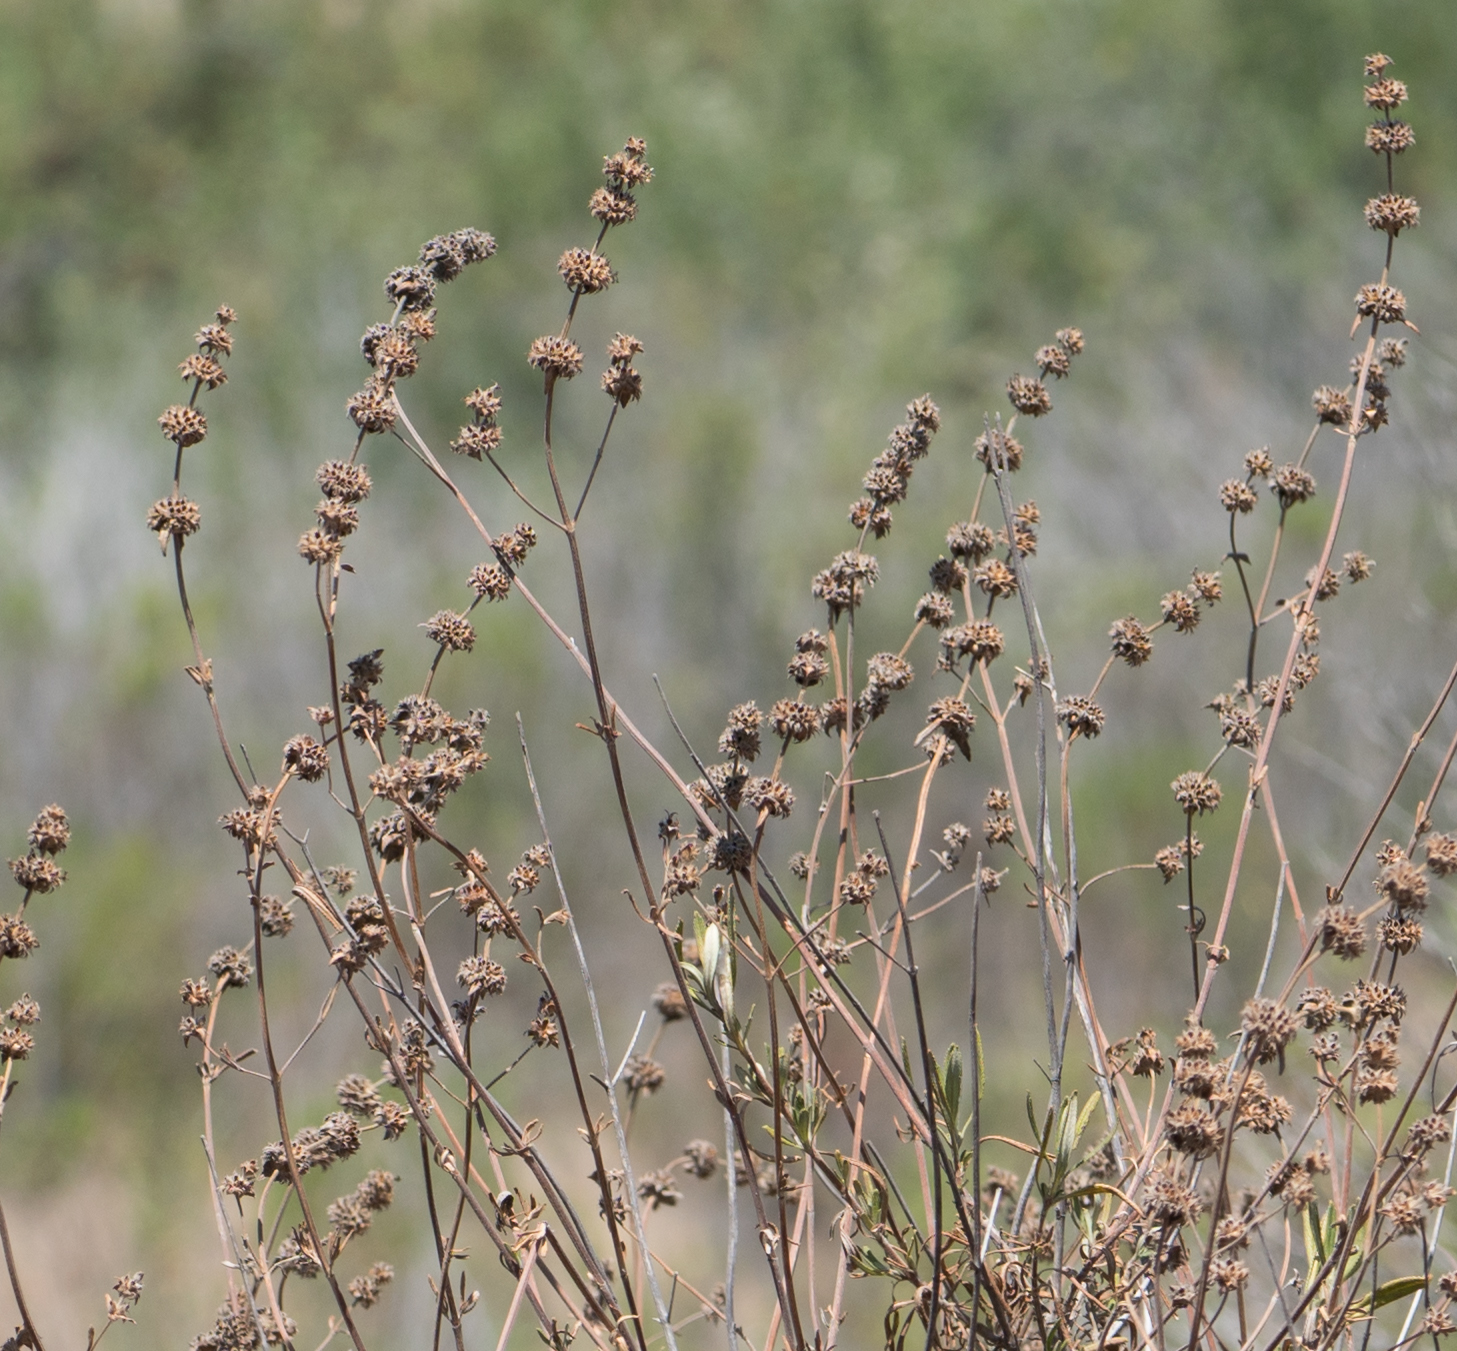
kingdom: Plantae
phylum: Tracheophyta
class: Magnoliopsida
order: Lamiales
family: Lamiaceae
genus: Salvia
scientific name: Salvia mellifera
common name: Black sage
